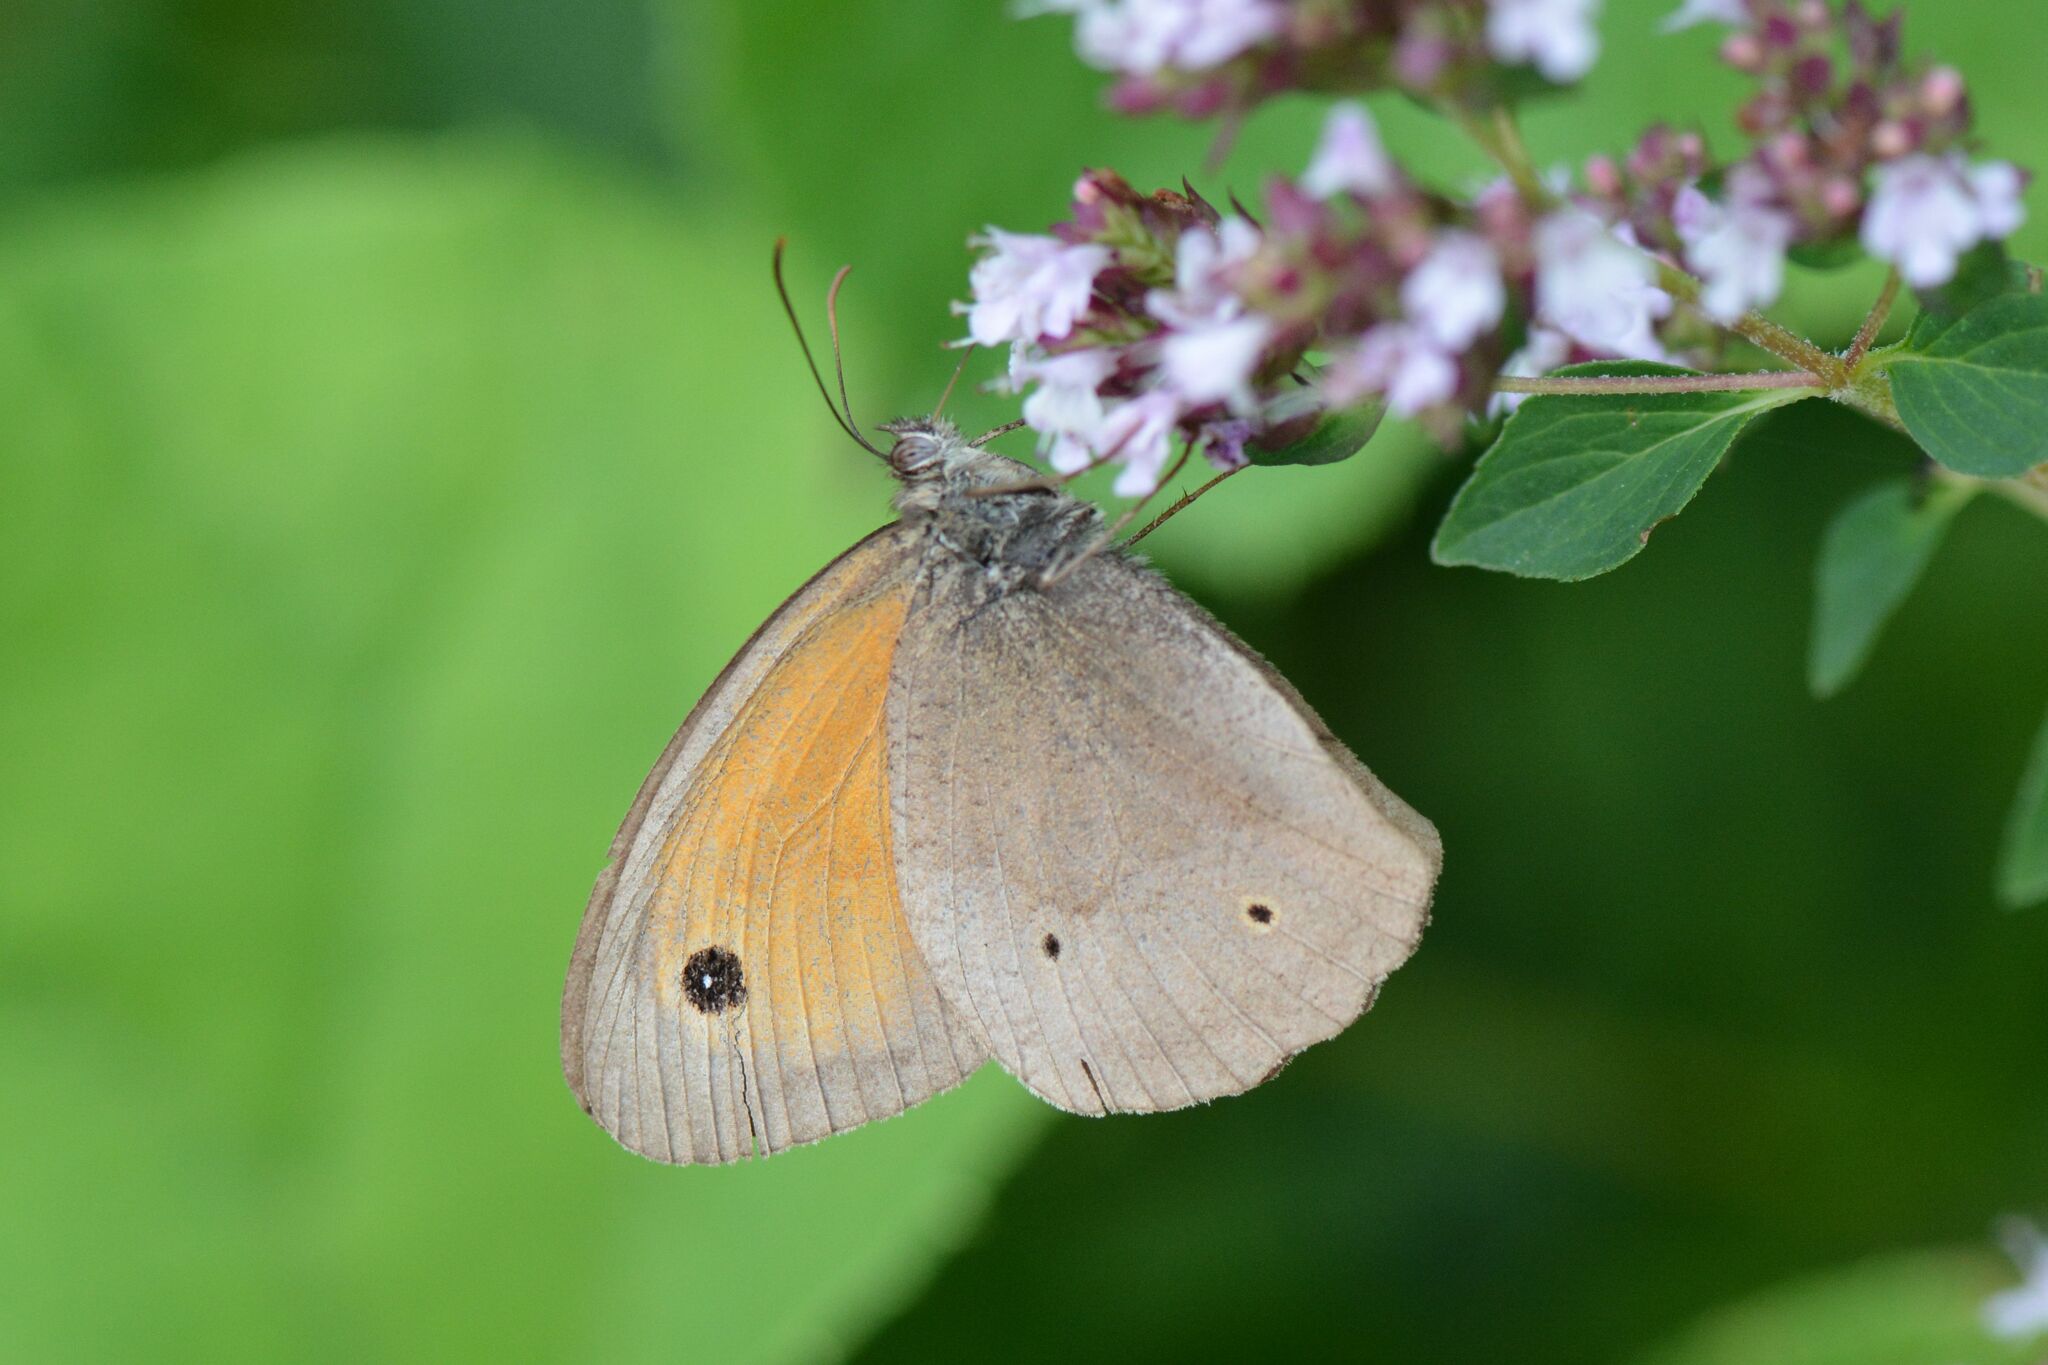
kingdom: Animalia
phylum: Arthropoda
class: Insecta
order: Lepidoptera
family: Nymphalidae
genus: Maniola
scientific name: Maniola jurtina
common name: Meadow brown
